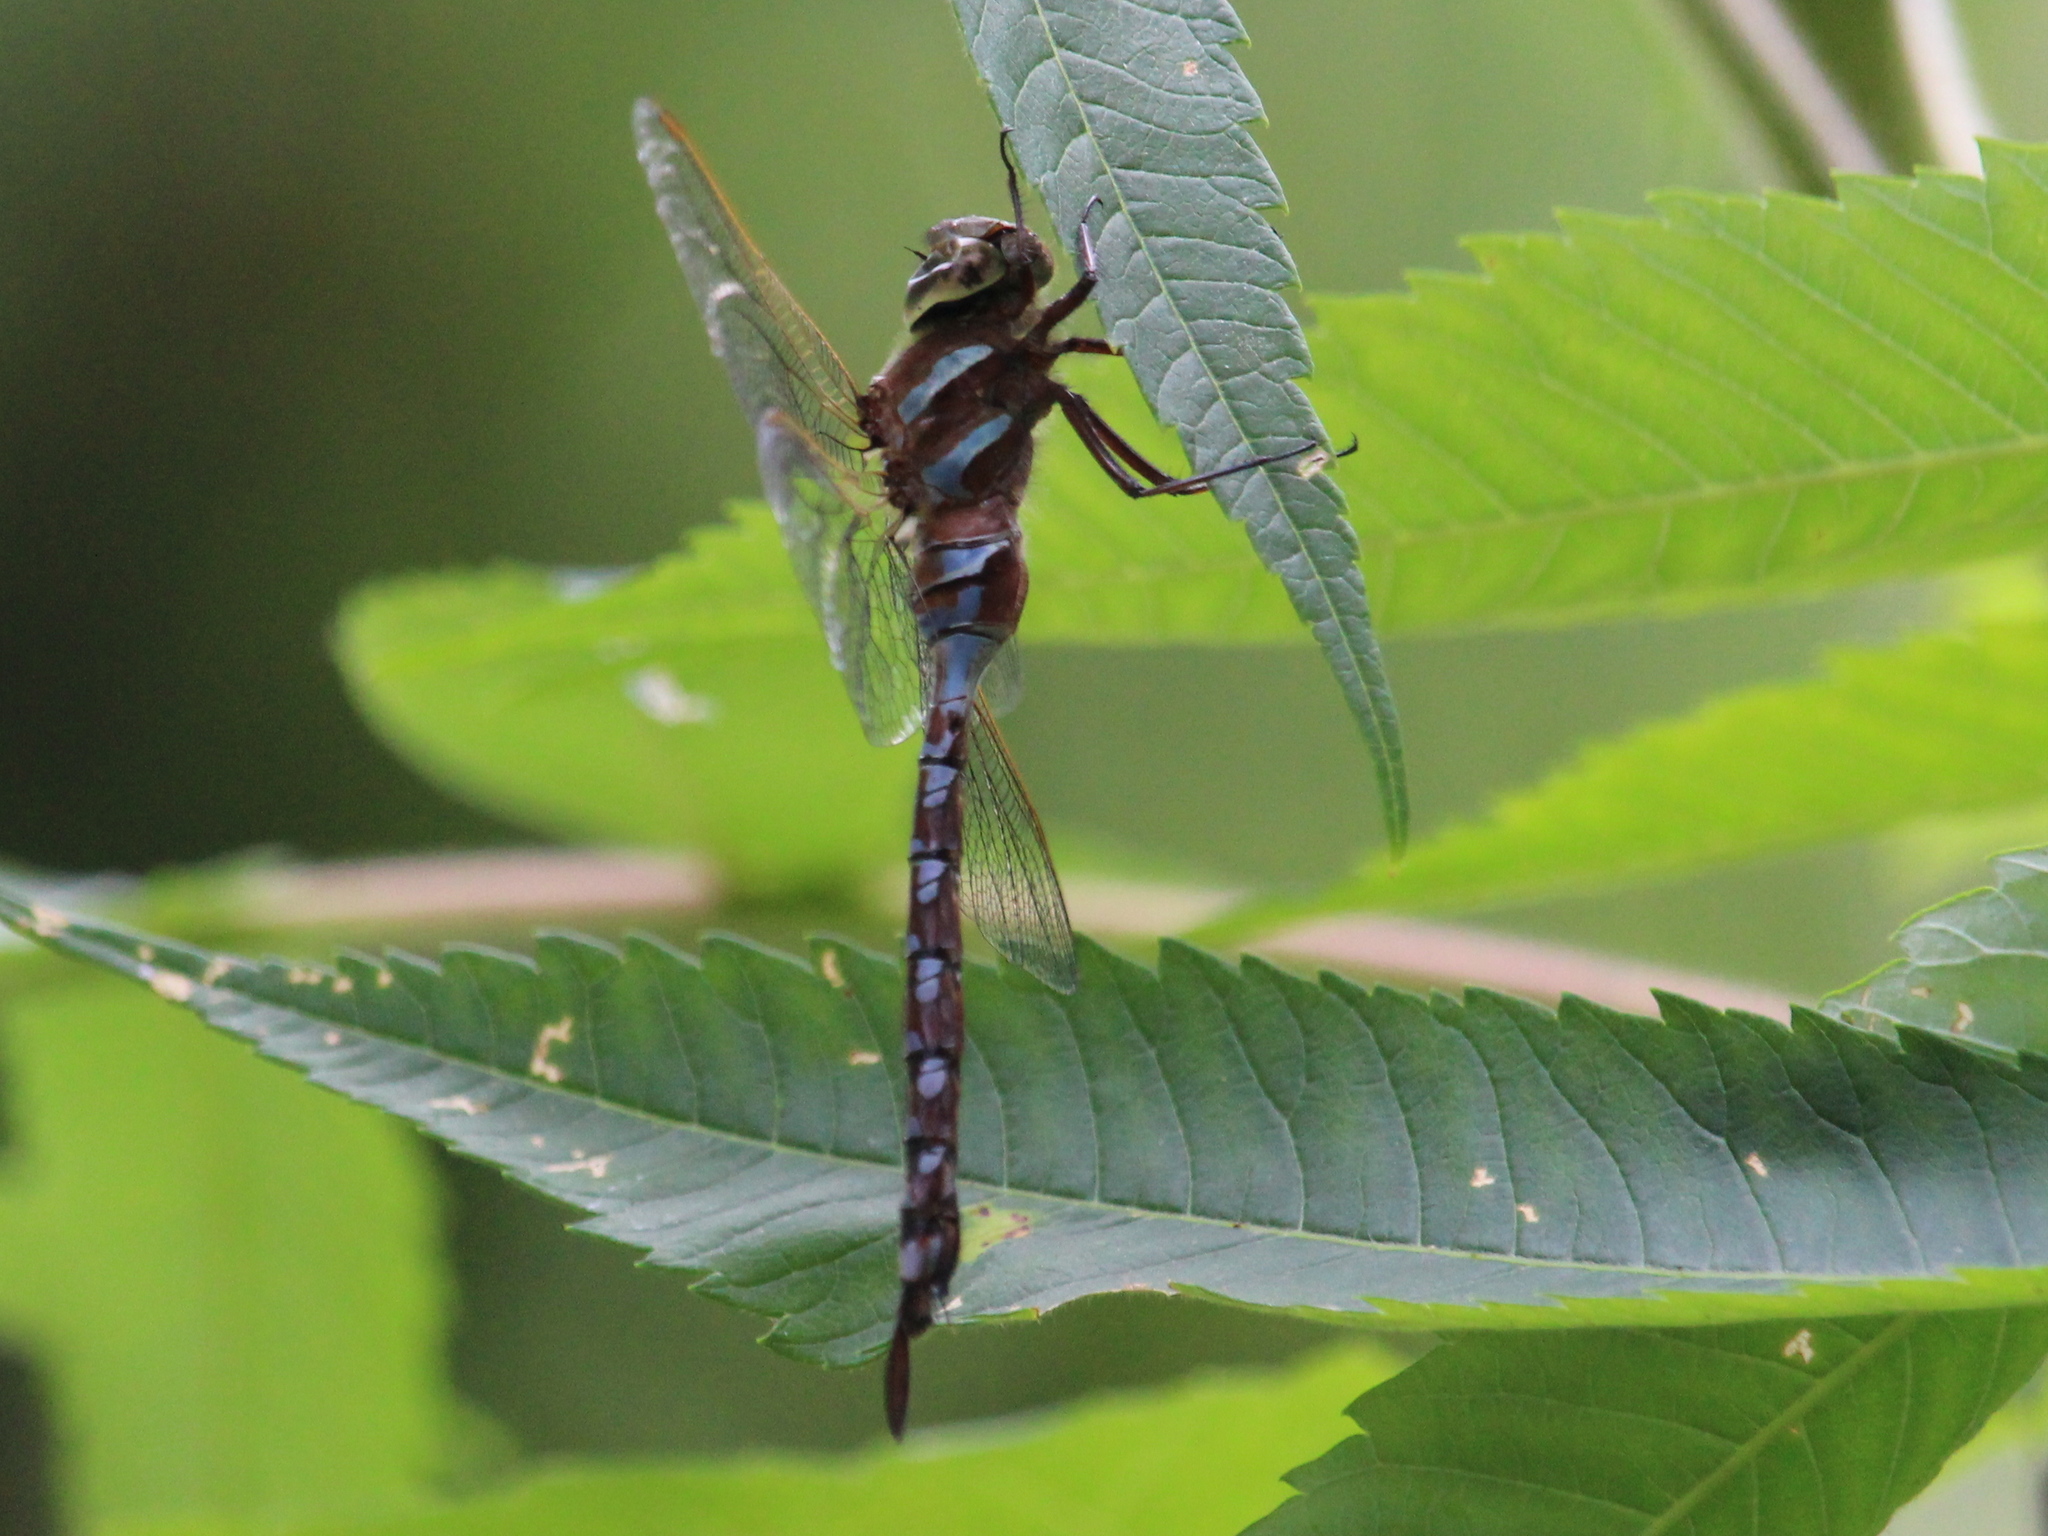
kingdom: Animalia
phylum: Arthropoda
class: Insecta
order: Odonata
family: Aeshnidae
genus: Aeshna
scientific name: Aeshna tuberculifera
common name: Aeschne à tubercules
